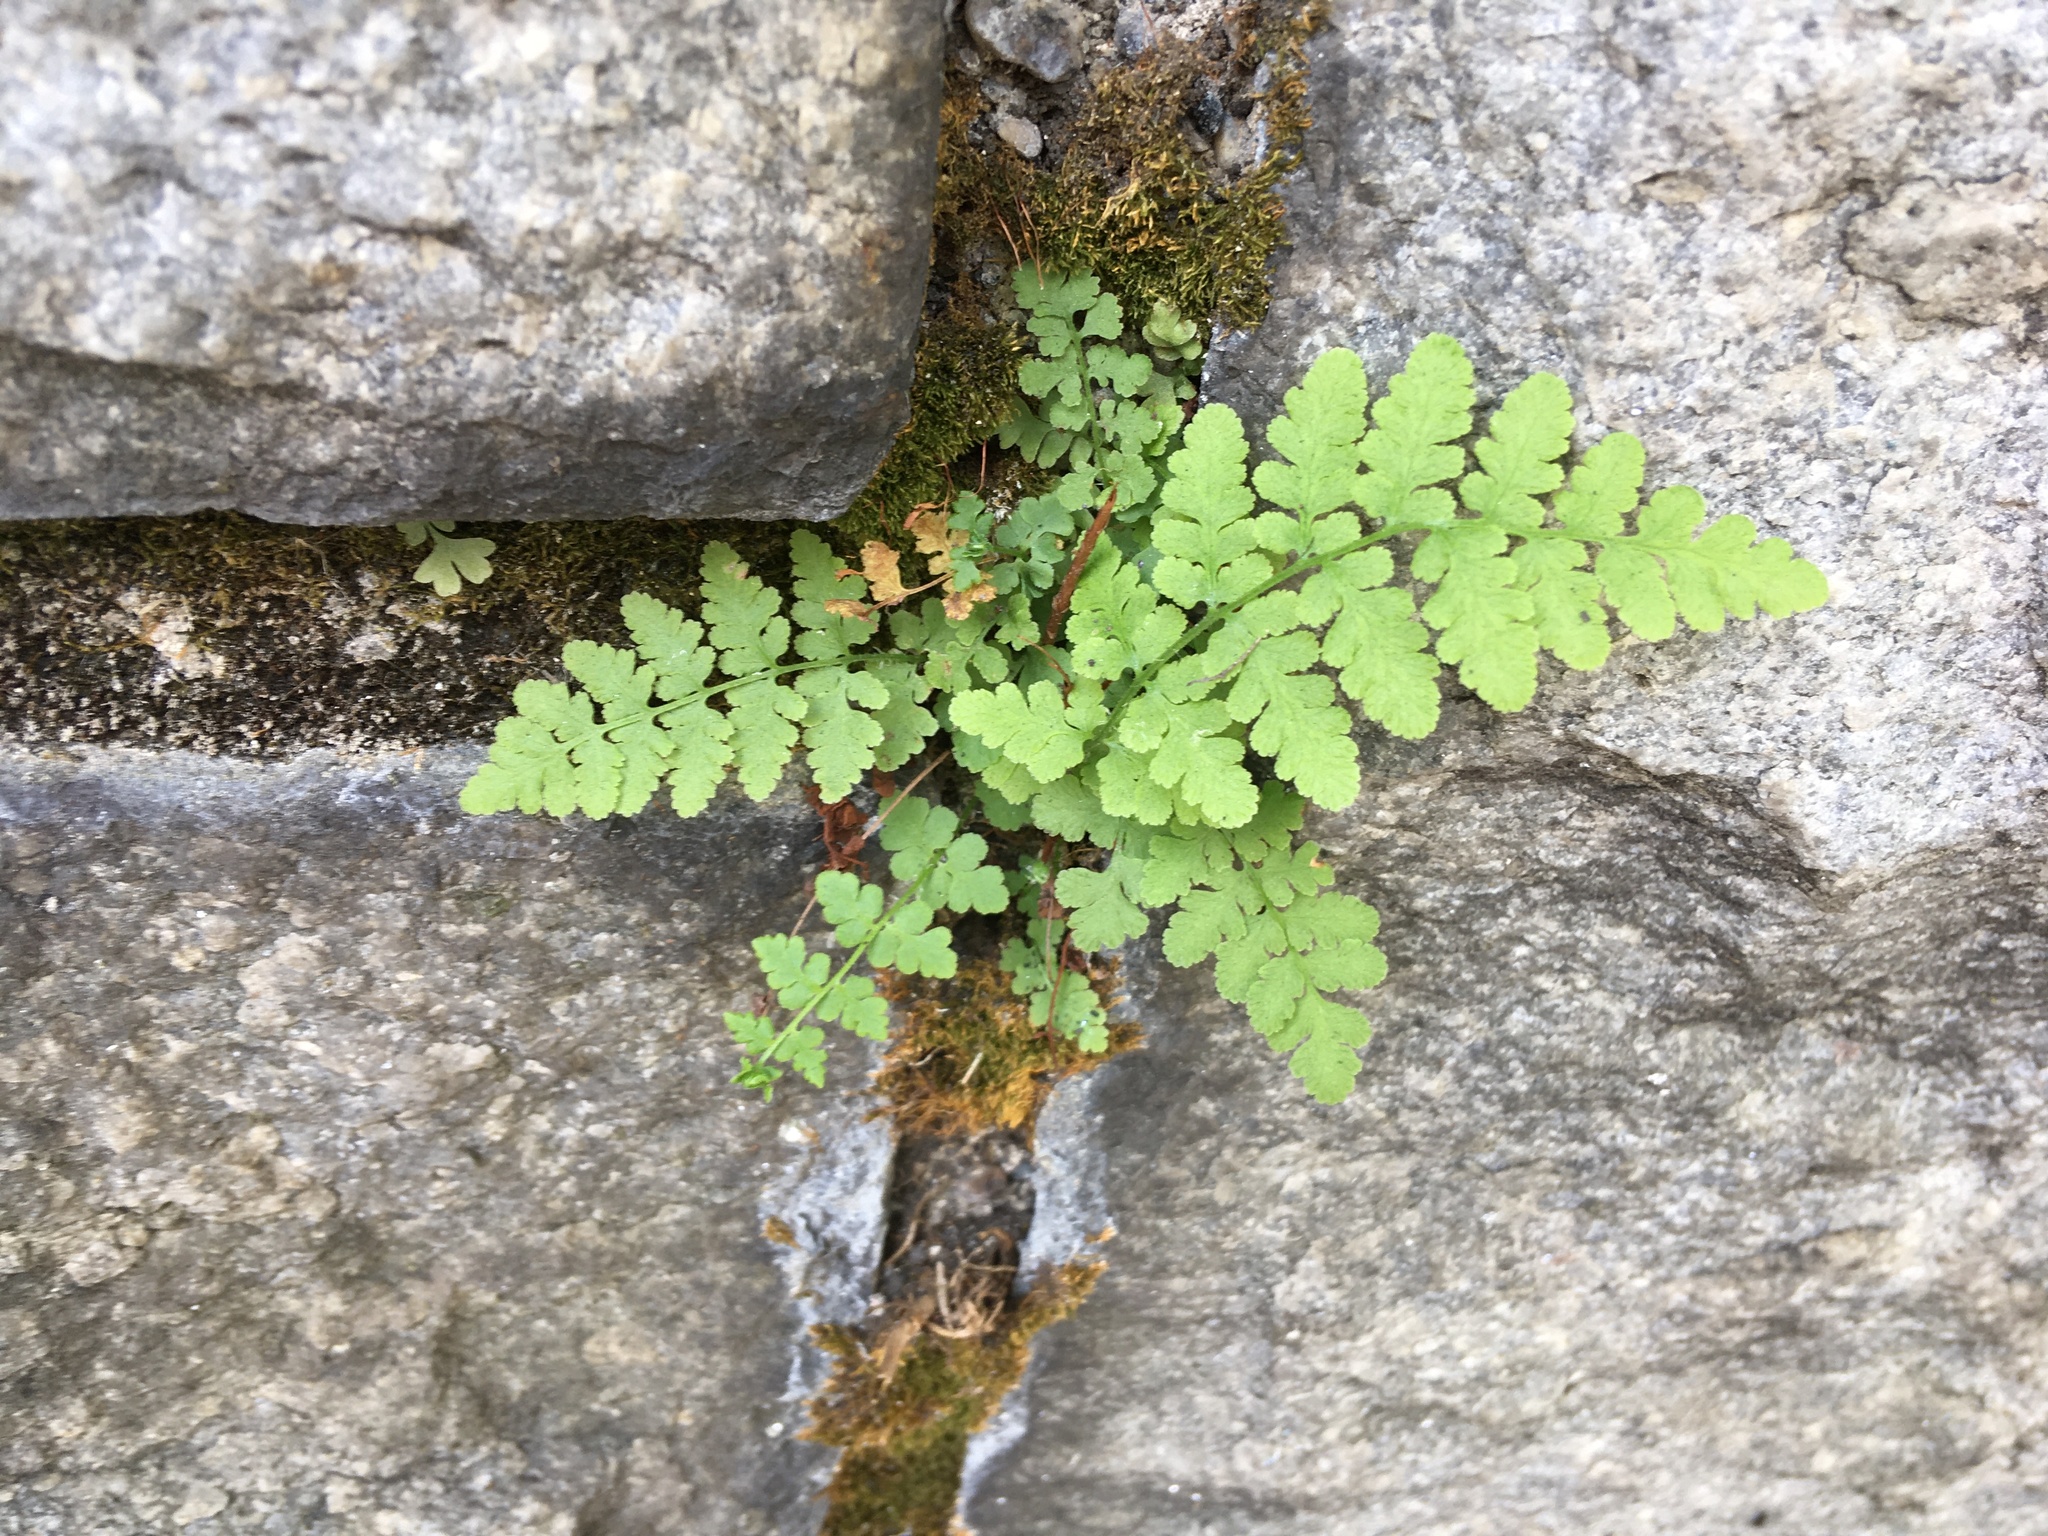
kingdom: Plantae
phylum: Tracheophyta
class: Polypodiopsida
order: Polypodiales
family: Woodsiaceae
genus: Physematium
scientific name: Physematium obtusum
